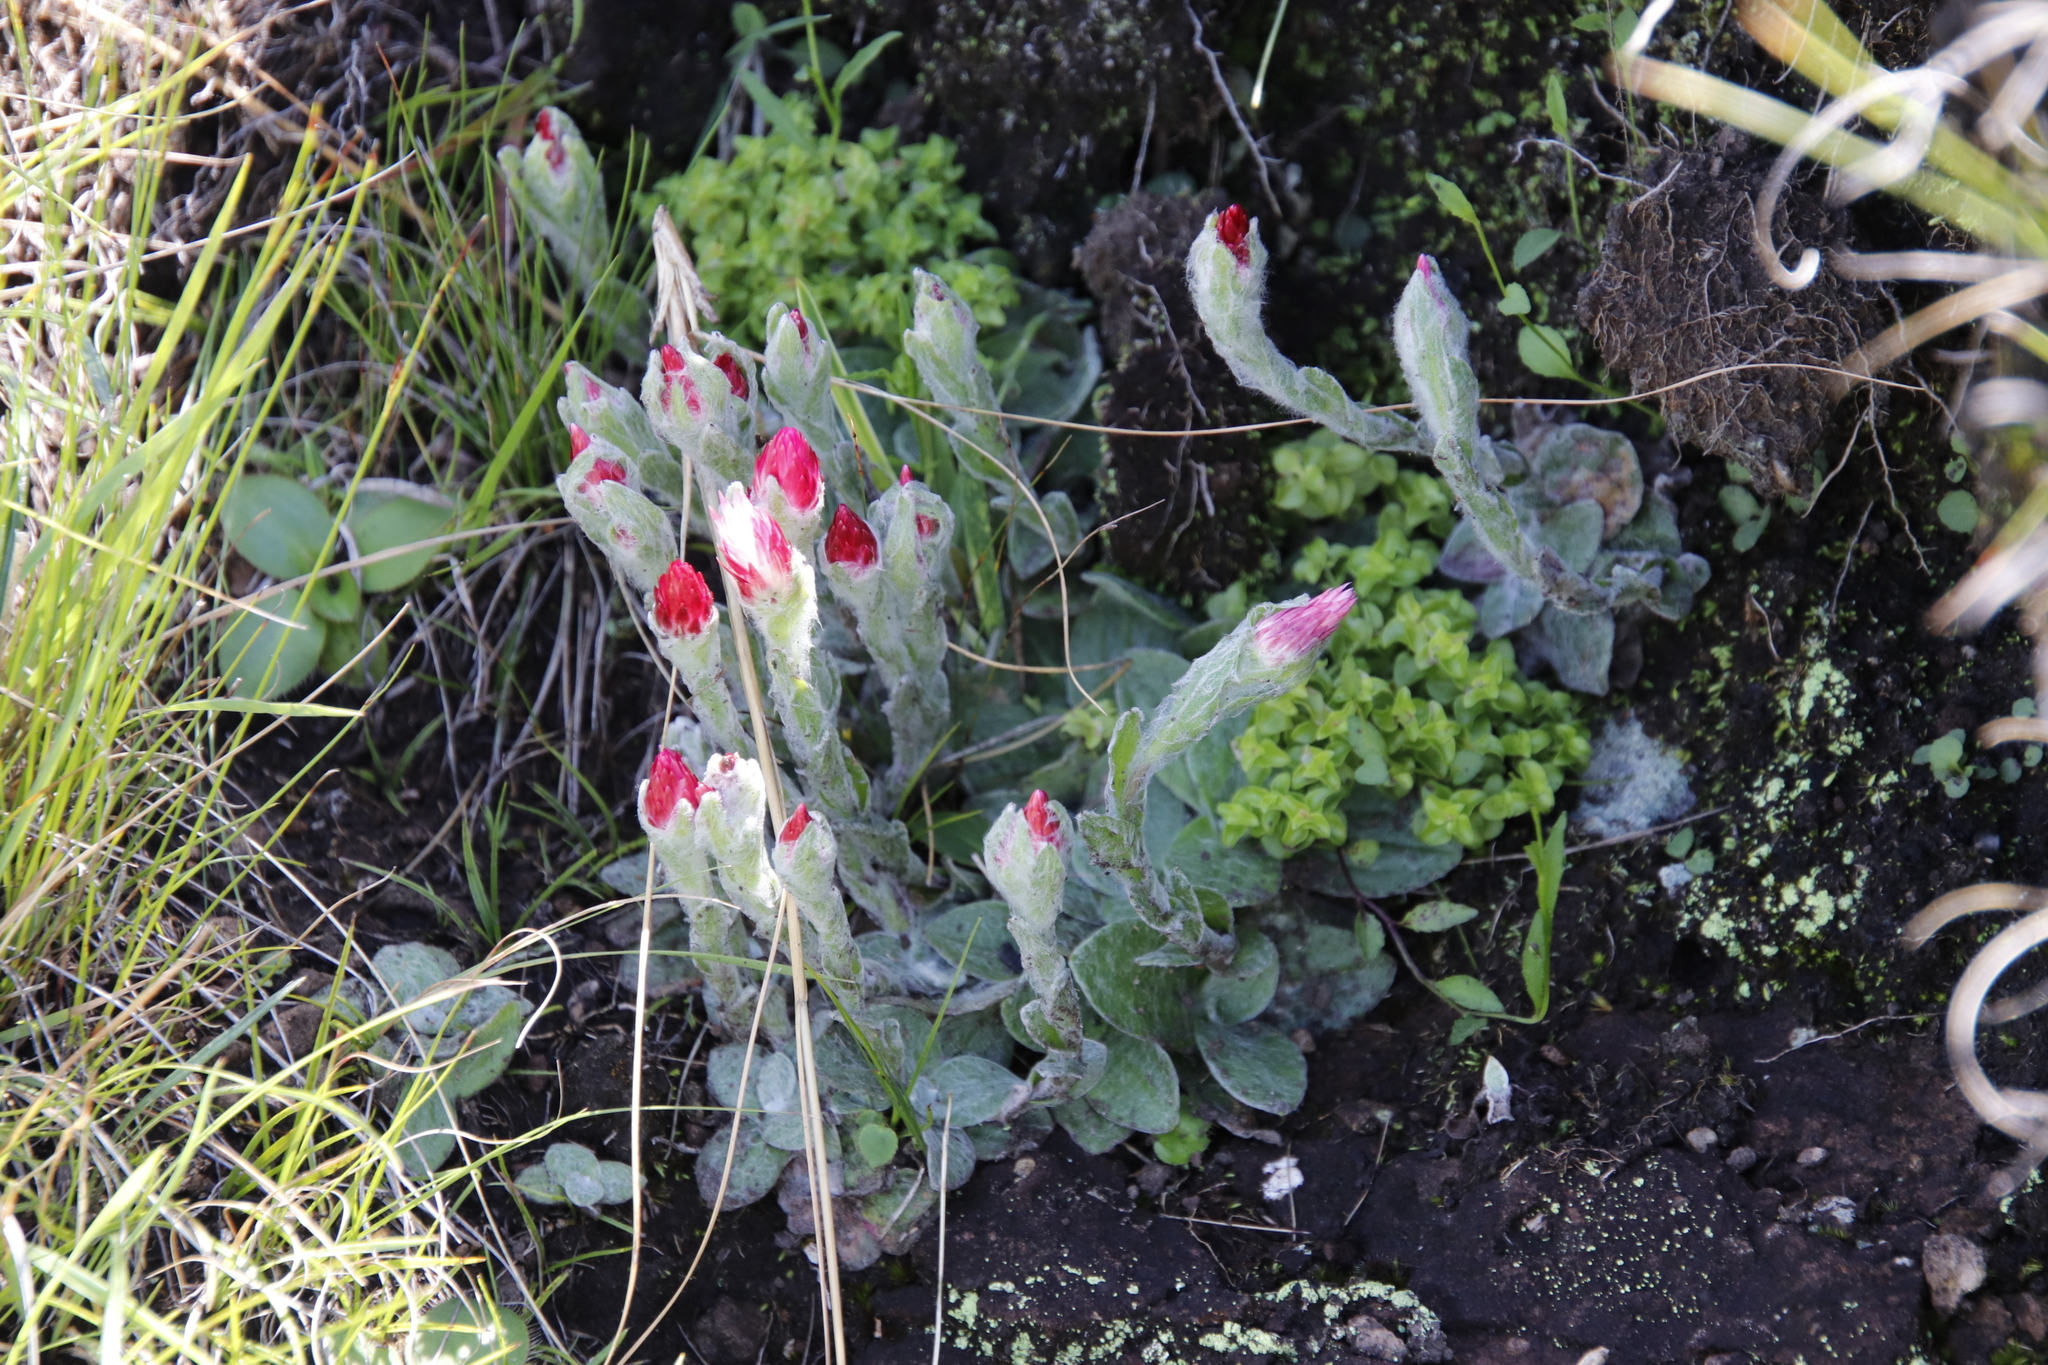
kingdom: Plantae
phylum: Tracheophyta
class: Magnoliopsida
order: Asterales
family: Asteraceae
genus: Helichrysum
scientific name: Helichrysum adenocarpum
